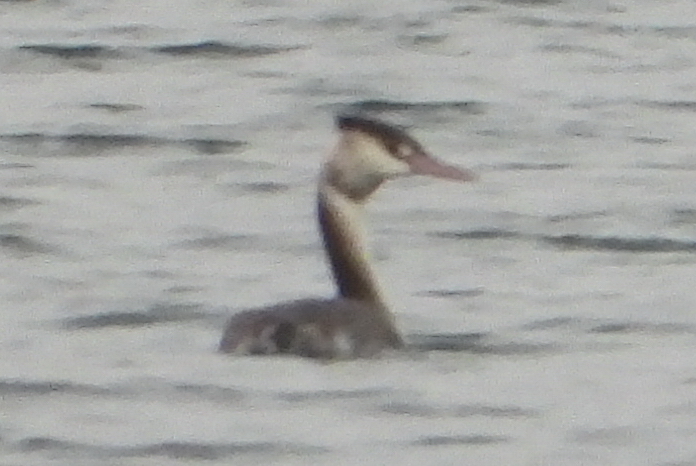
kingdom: Animalia
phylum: Chordata
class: Aves
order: Podicipediformes
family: Podicipedidae
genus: Podiceps
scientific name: Podiceps cristatus
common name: Great crested grebe
